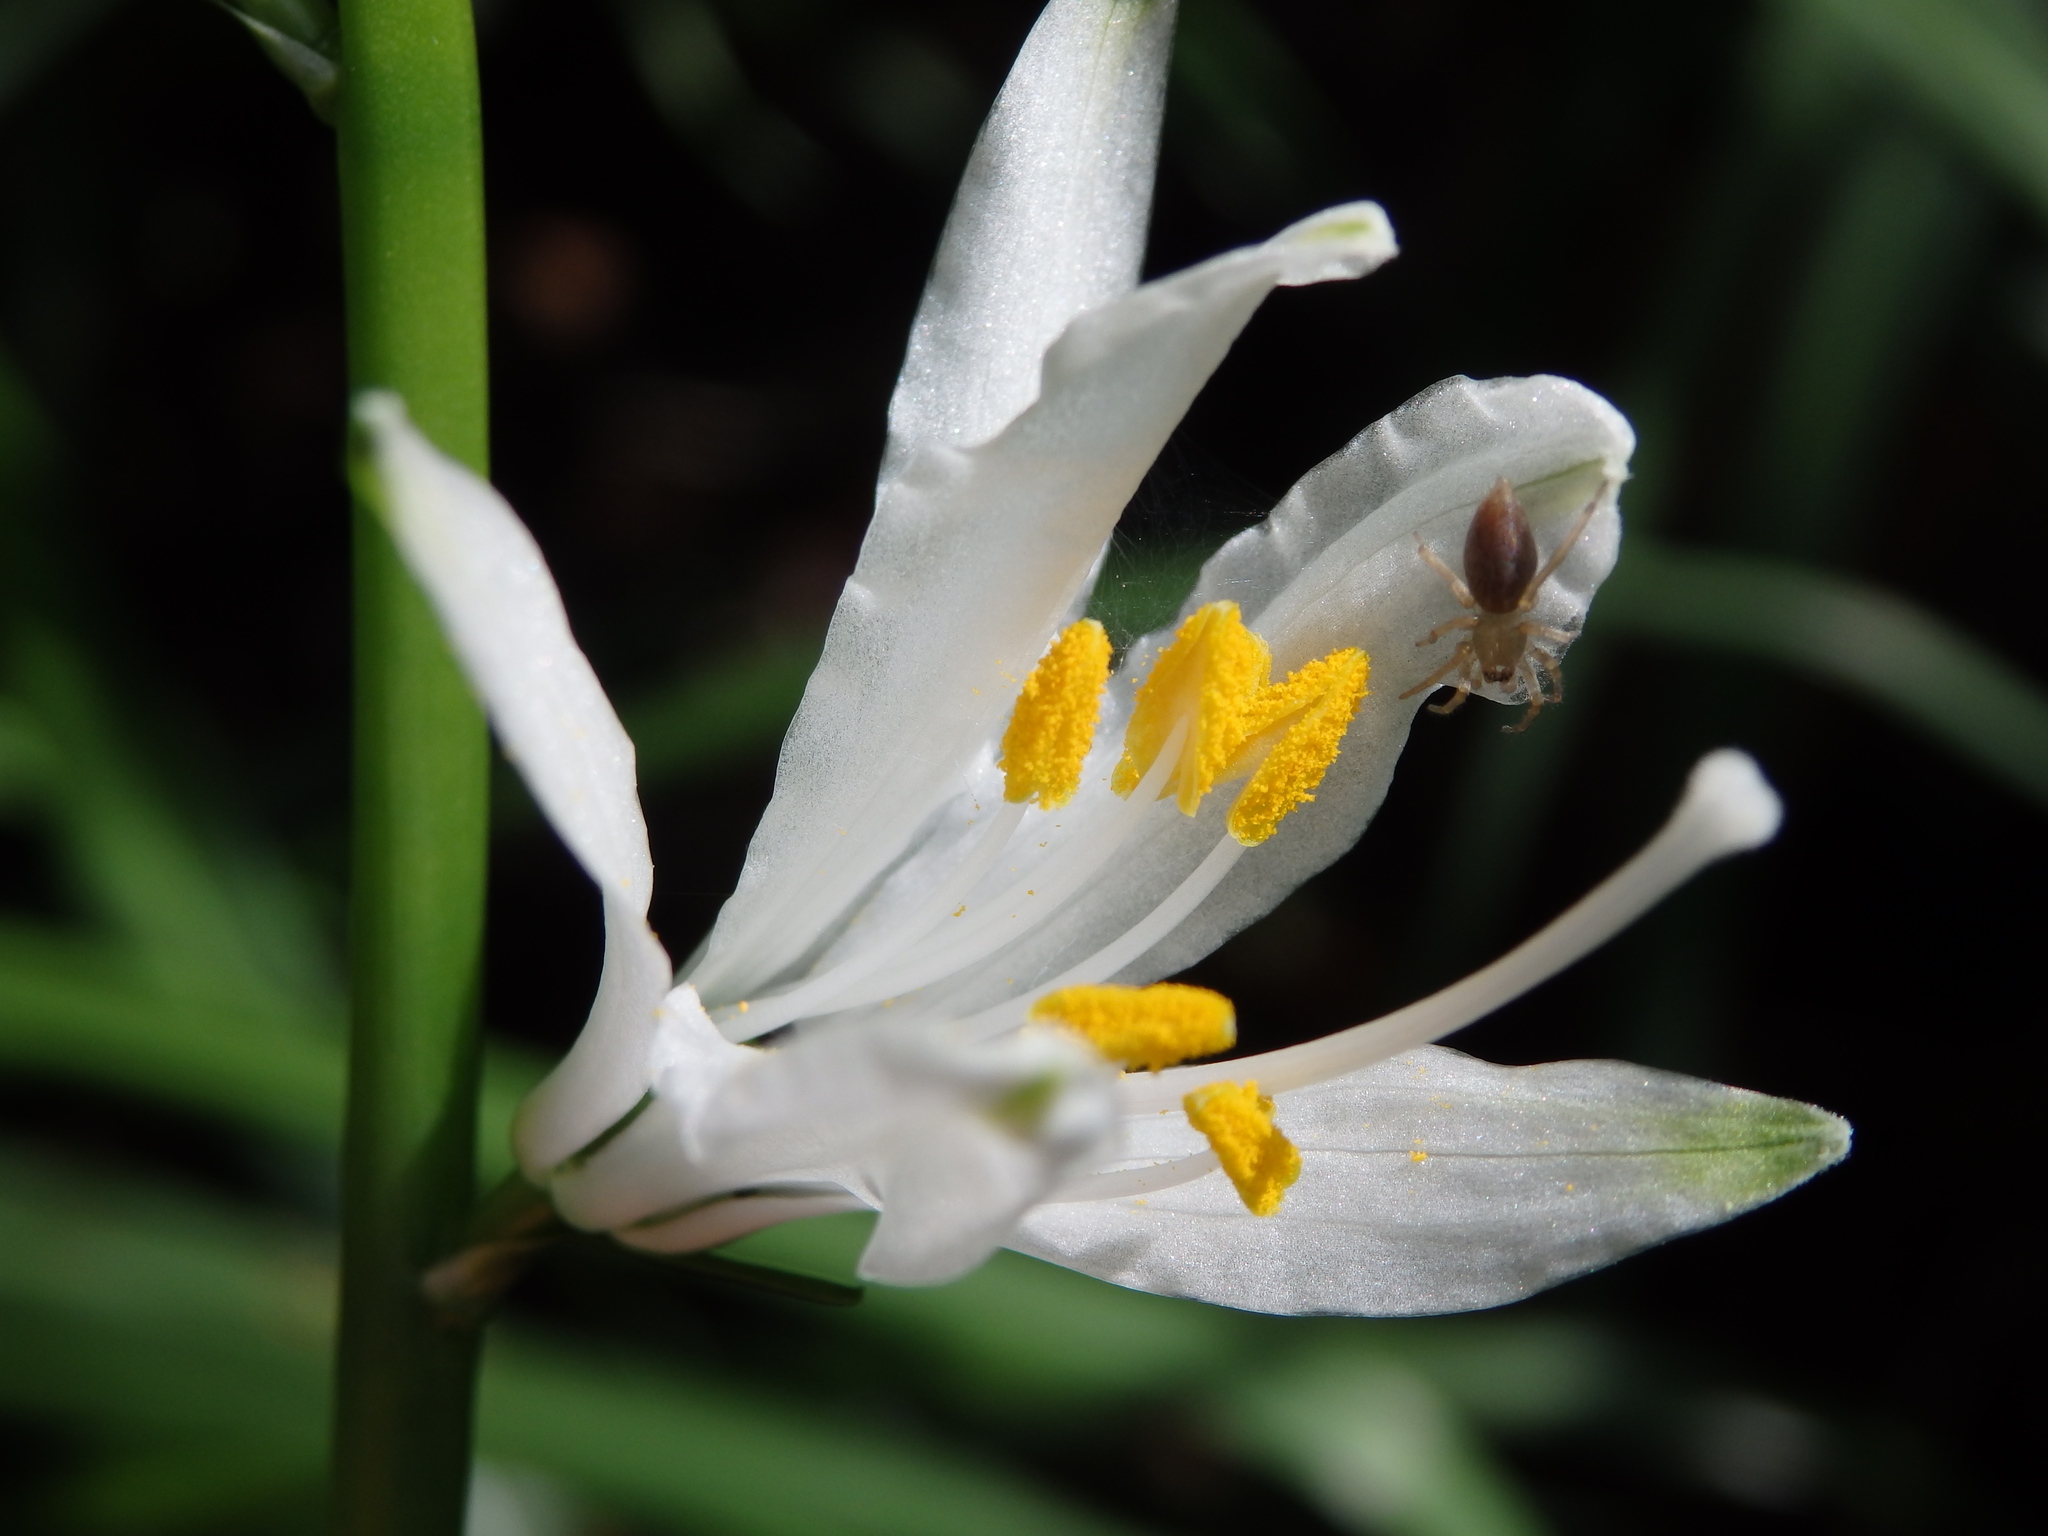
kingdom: Plantae
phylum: Tracheophyta
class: Liliopsida
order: Asparagales
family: Asparagaceae
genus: Paradisea
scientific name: Paradisea lusitanica
